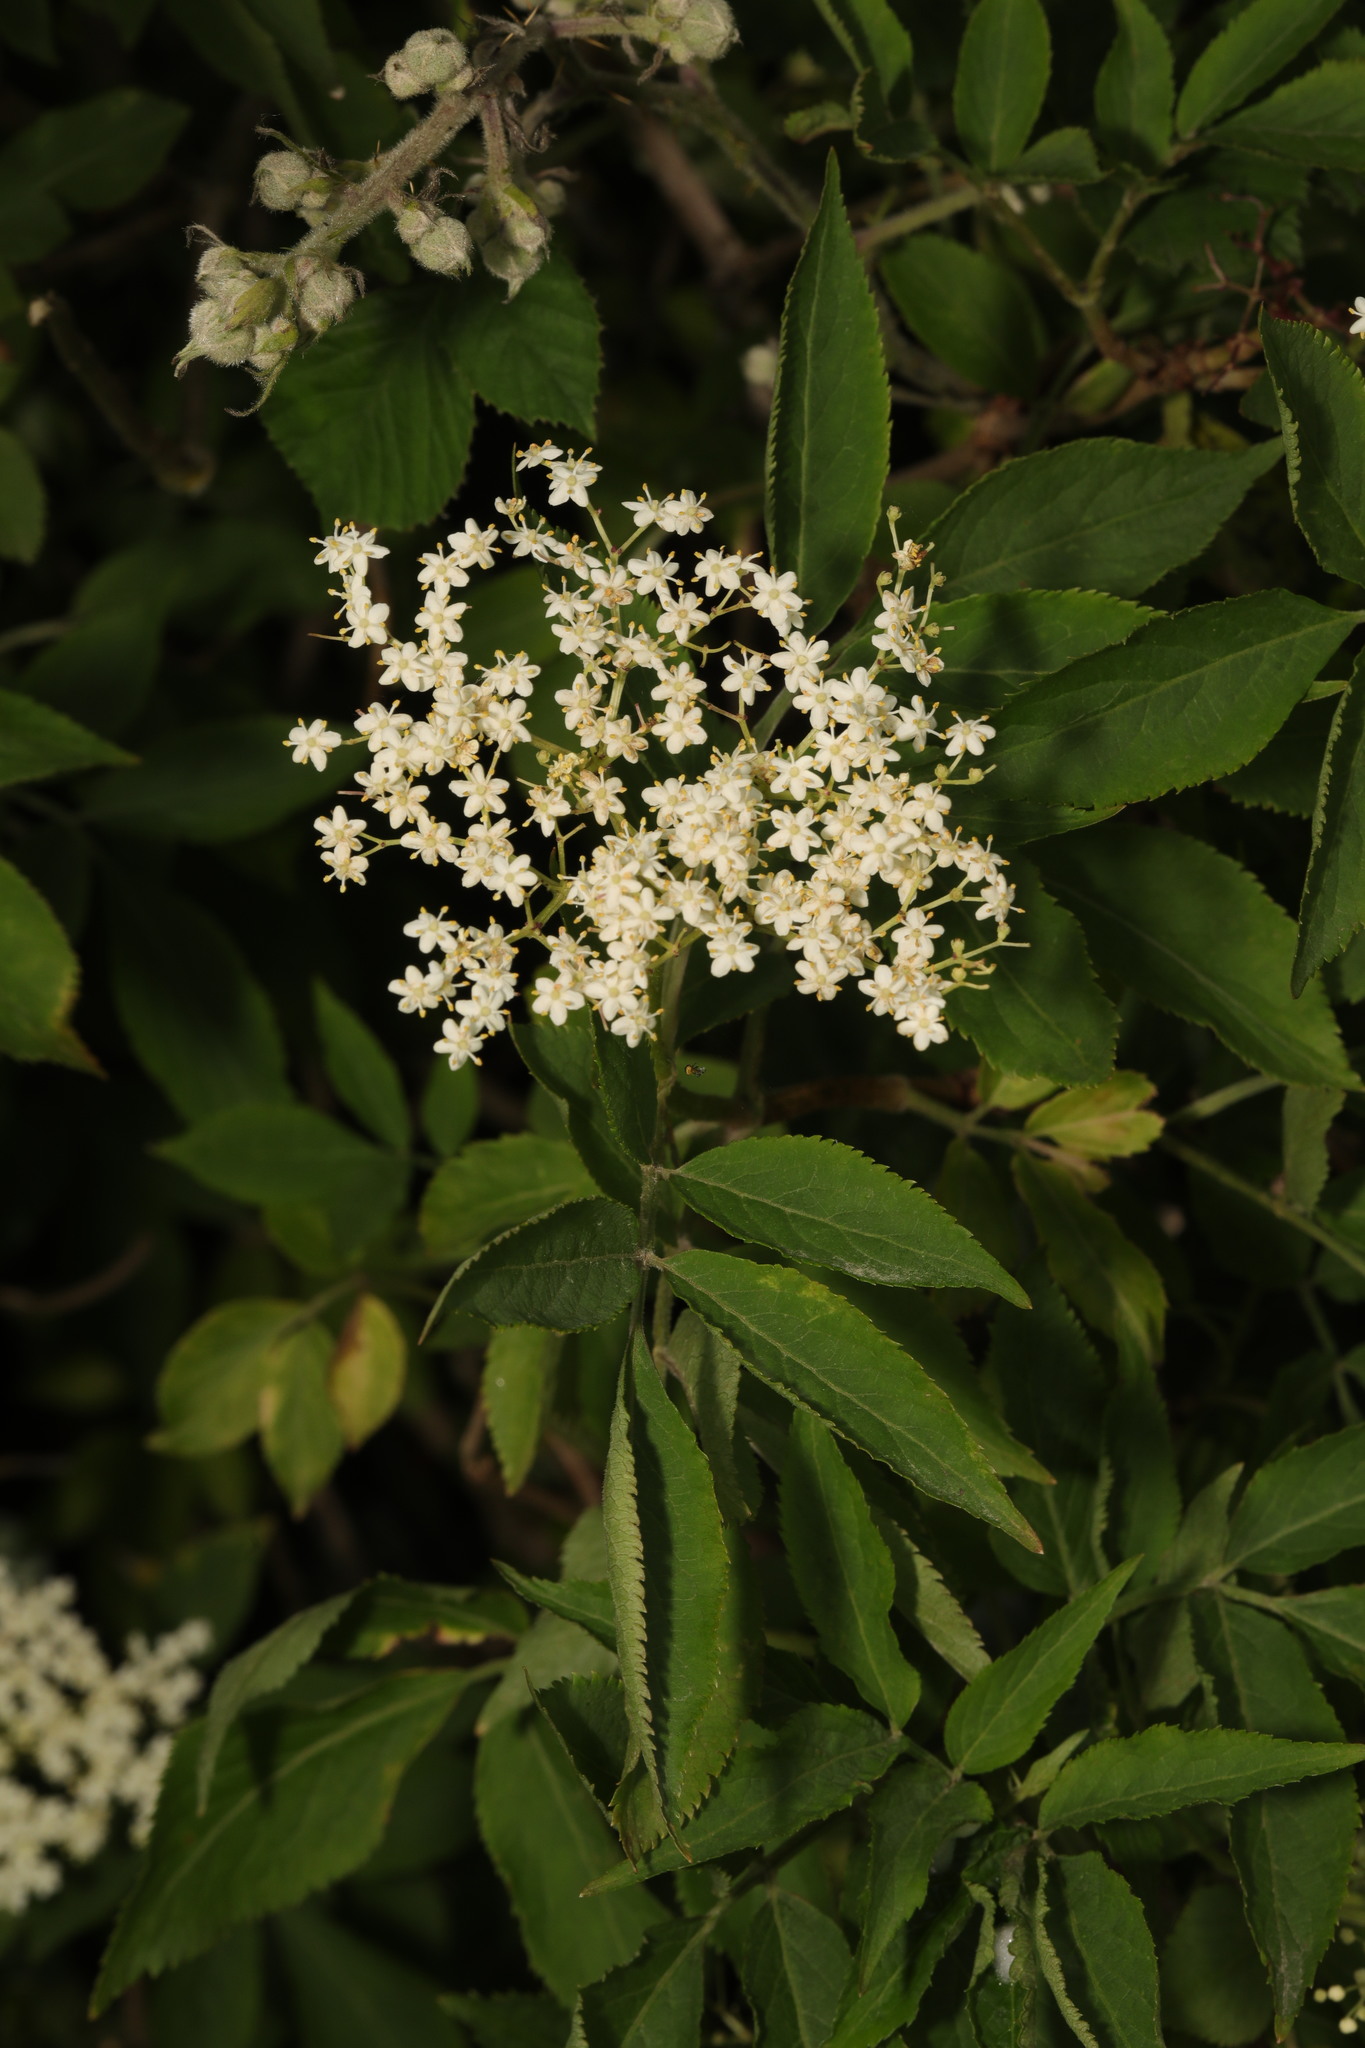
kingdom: Plantae
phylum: Tracheophyta
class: Magnoliopsida
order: Dipsacales
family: Viburnaceae
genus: Sambucus
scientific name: Sambucus nigra
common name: Elder
